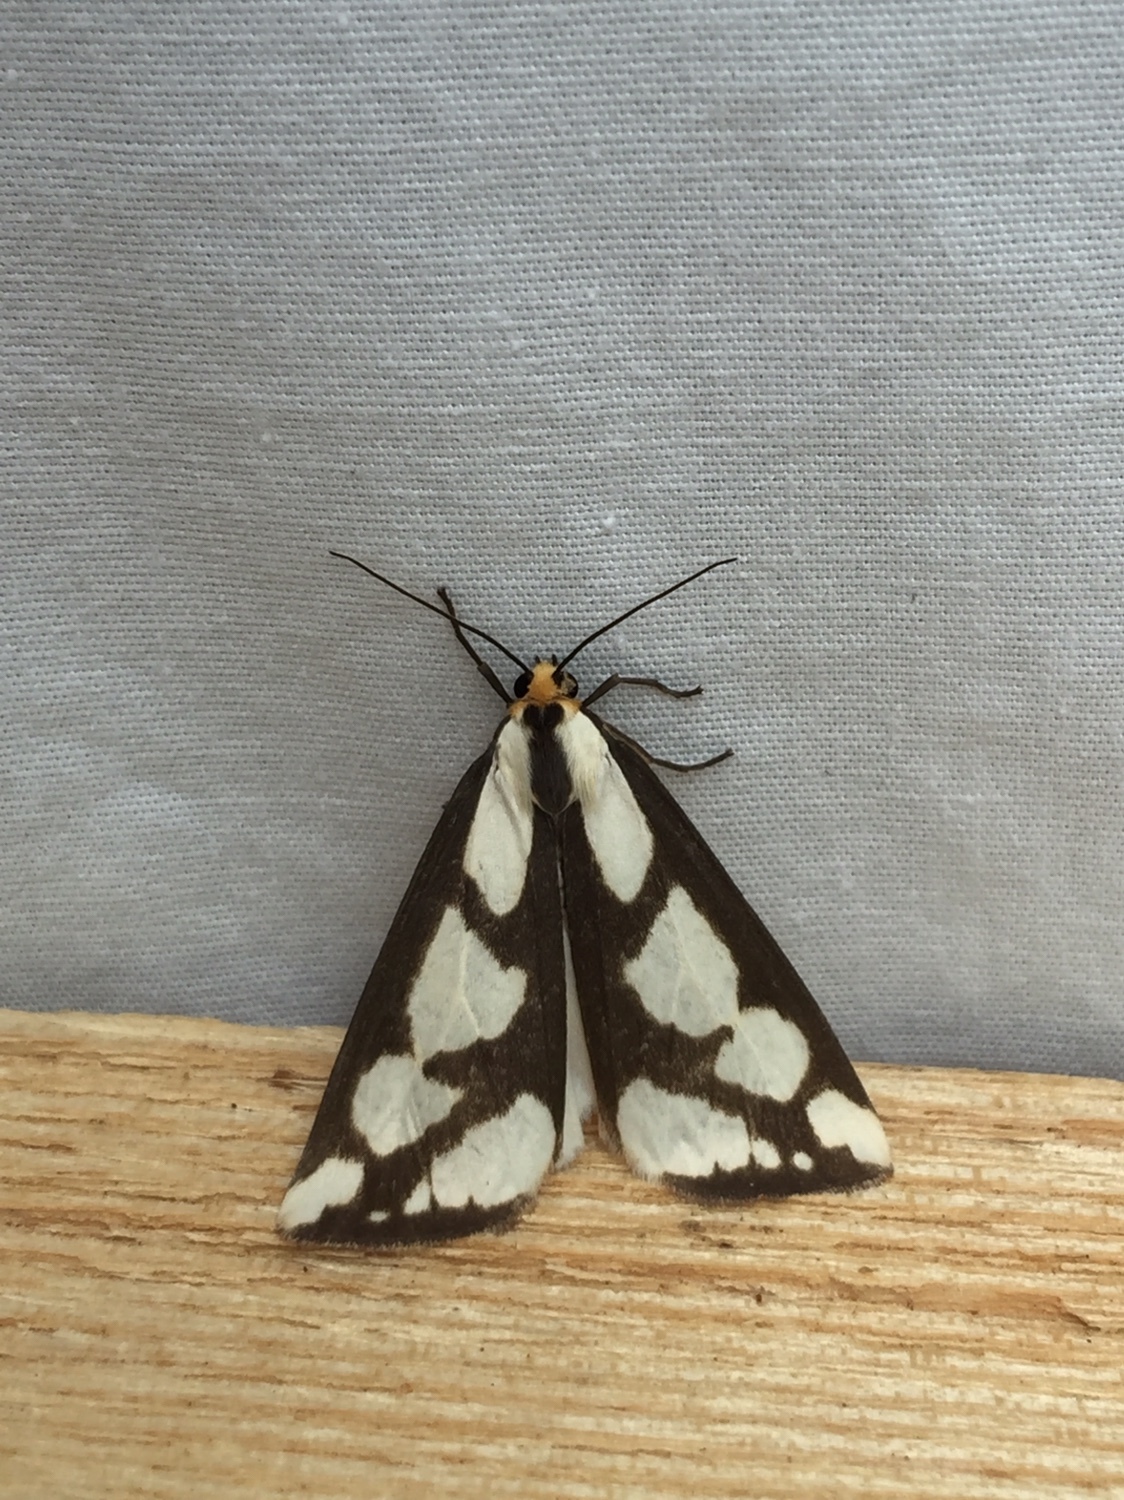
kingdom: Animalia
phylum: Arthropoda
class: Insecta
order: Lepidoptera
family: Erebidae
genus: Haploa
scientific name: Haploa lecontei
